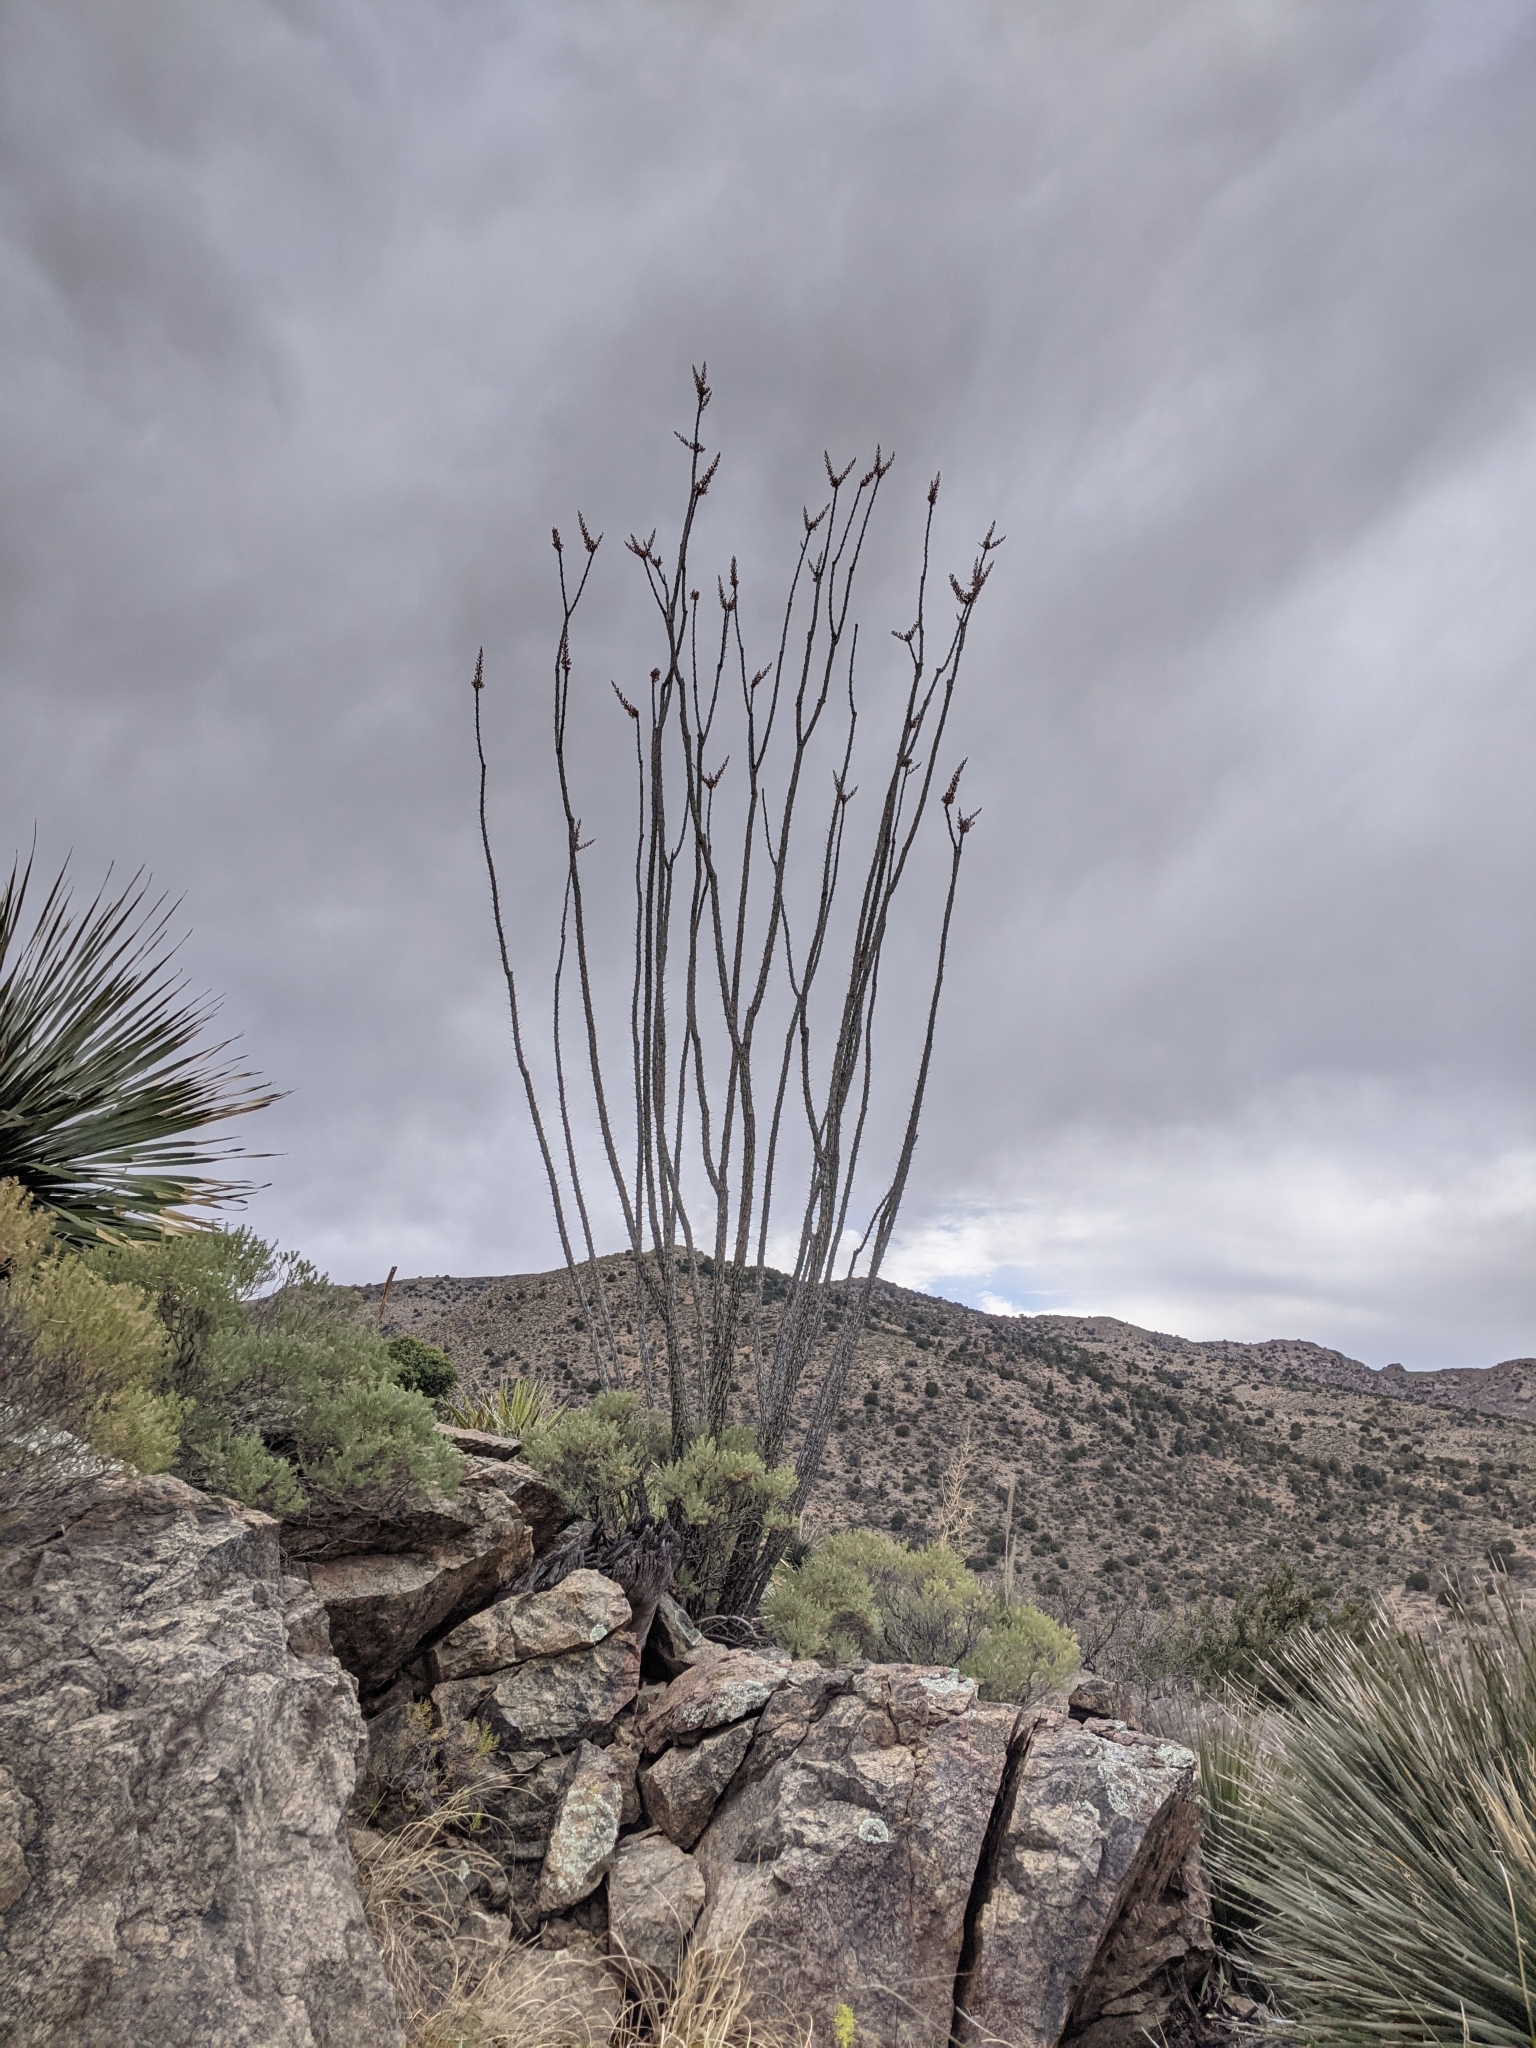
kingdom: Plantae
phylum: Tracheophyta
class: Magnoliopsida
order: Ericales
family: Fouquieriaceae
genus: Fouquieria
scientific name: Fouquieria splendens
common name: Vine-cactus
